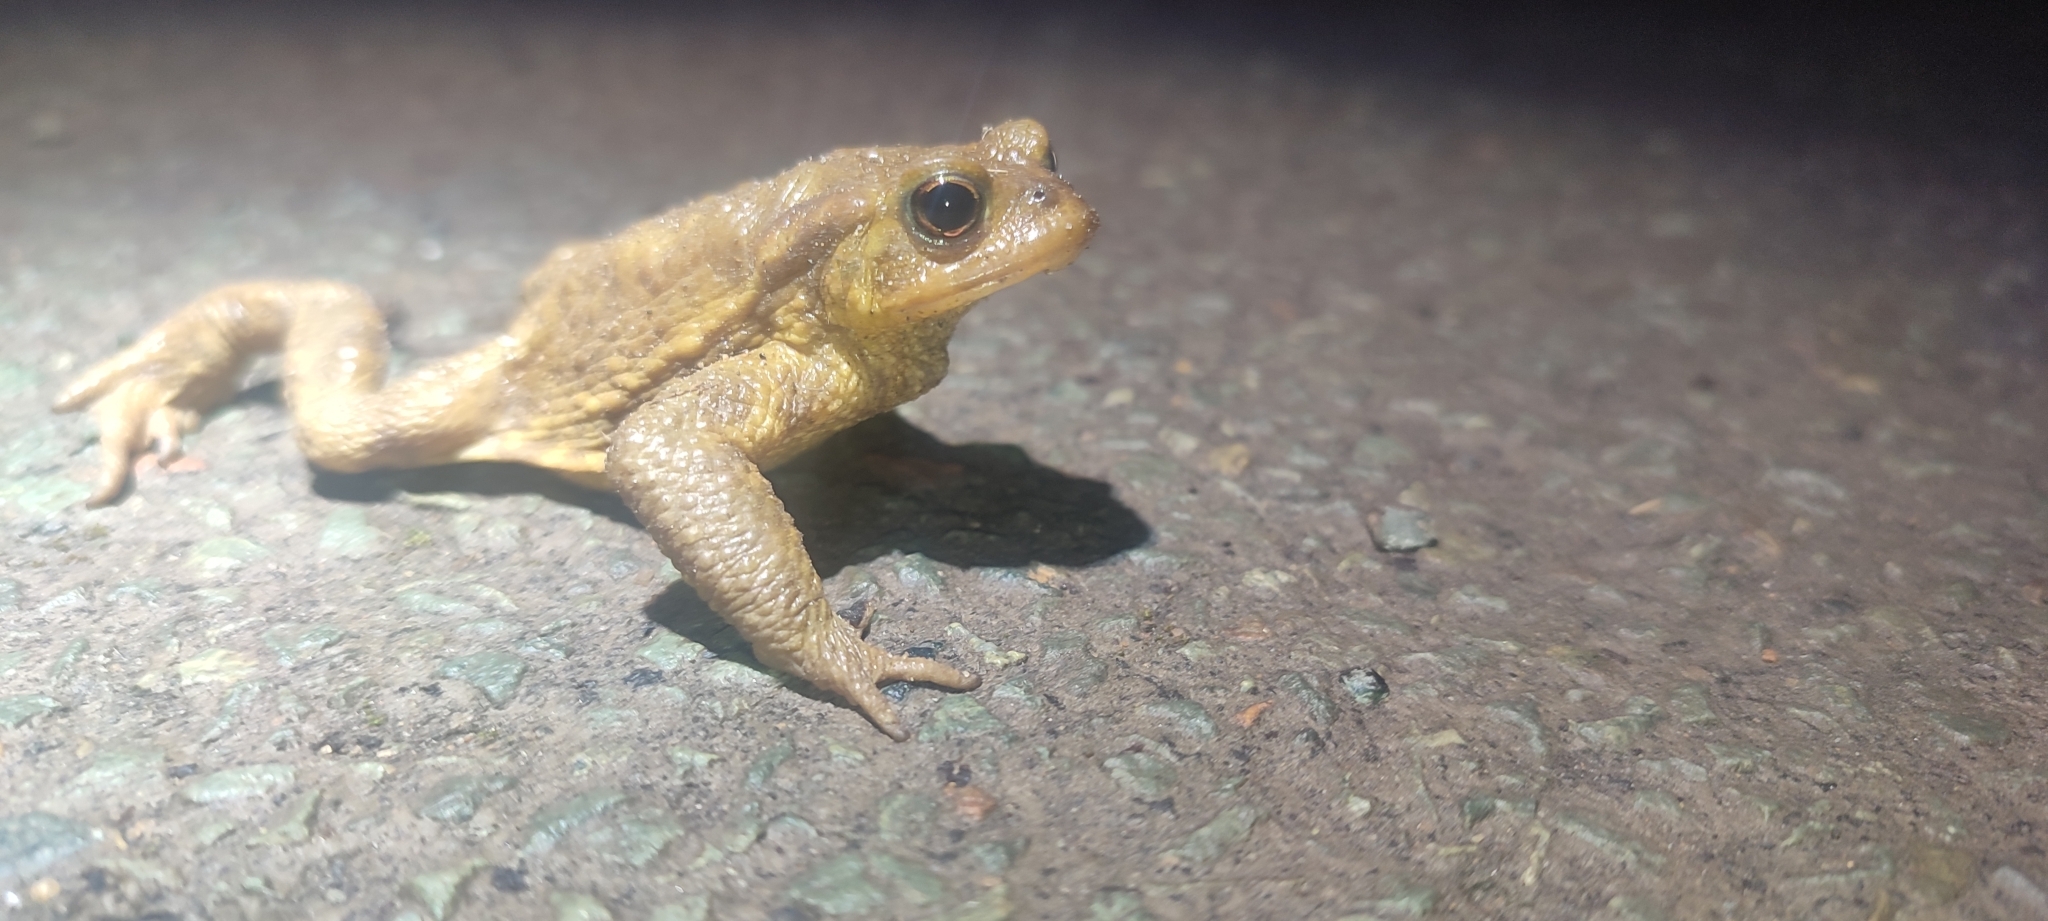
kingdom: Animalia
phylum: Chordata
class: Amphibia
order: Anura
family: Bufonidae
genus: Bufo
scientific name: Bufo spinosus
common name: Western common toad
